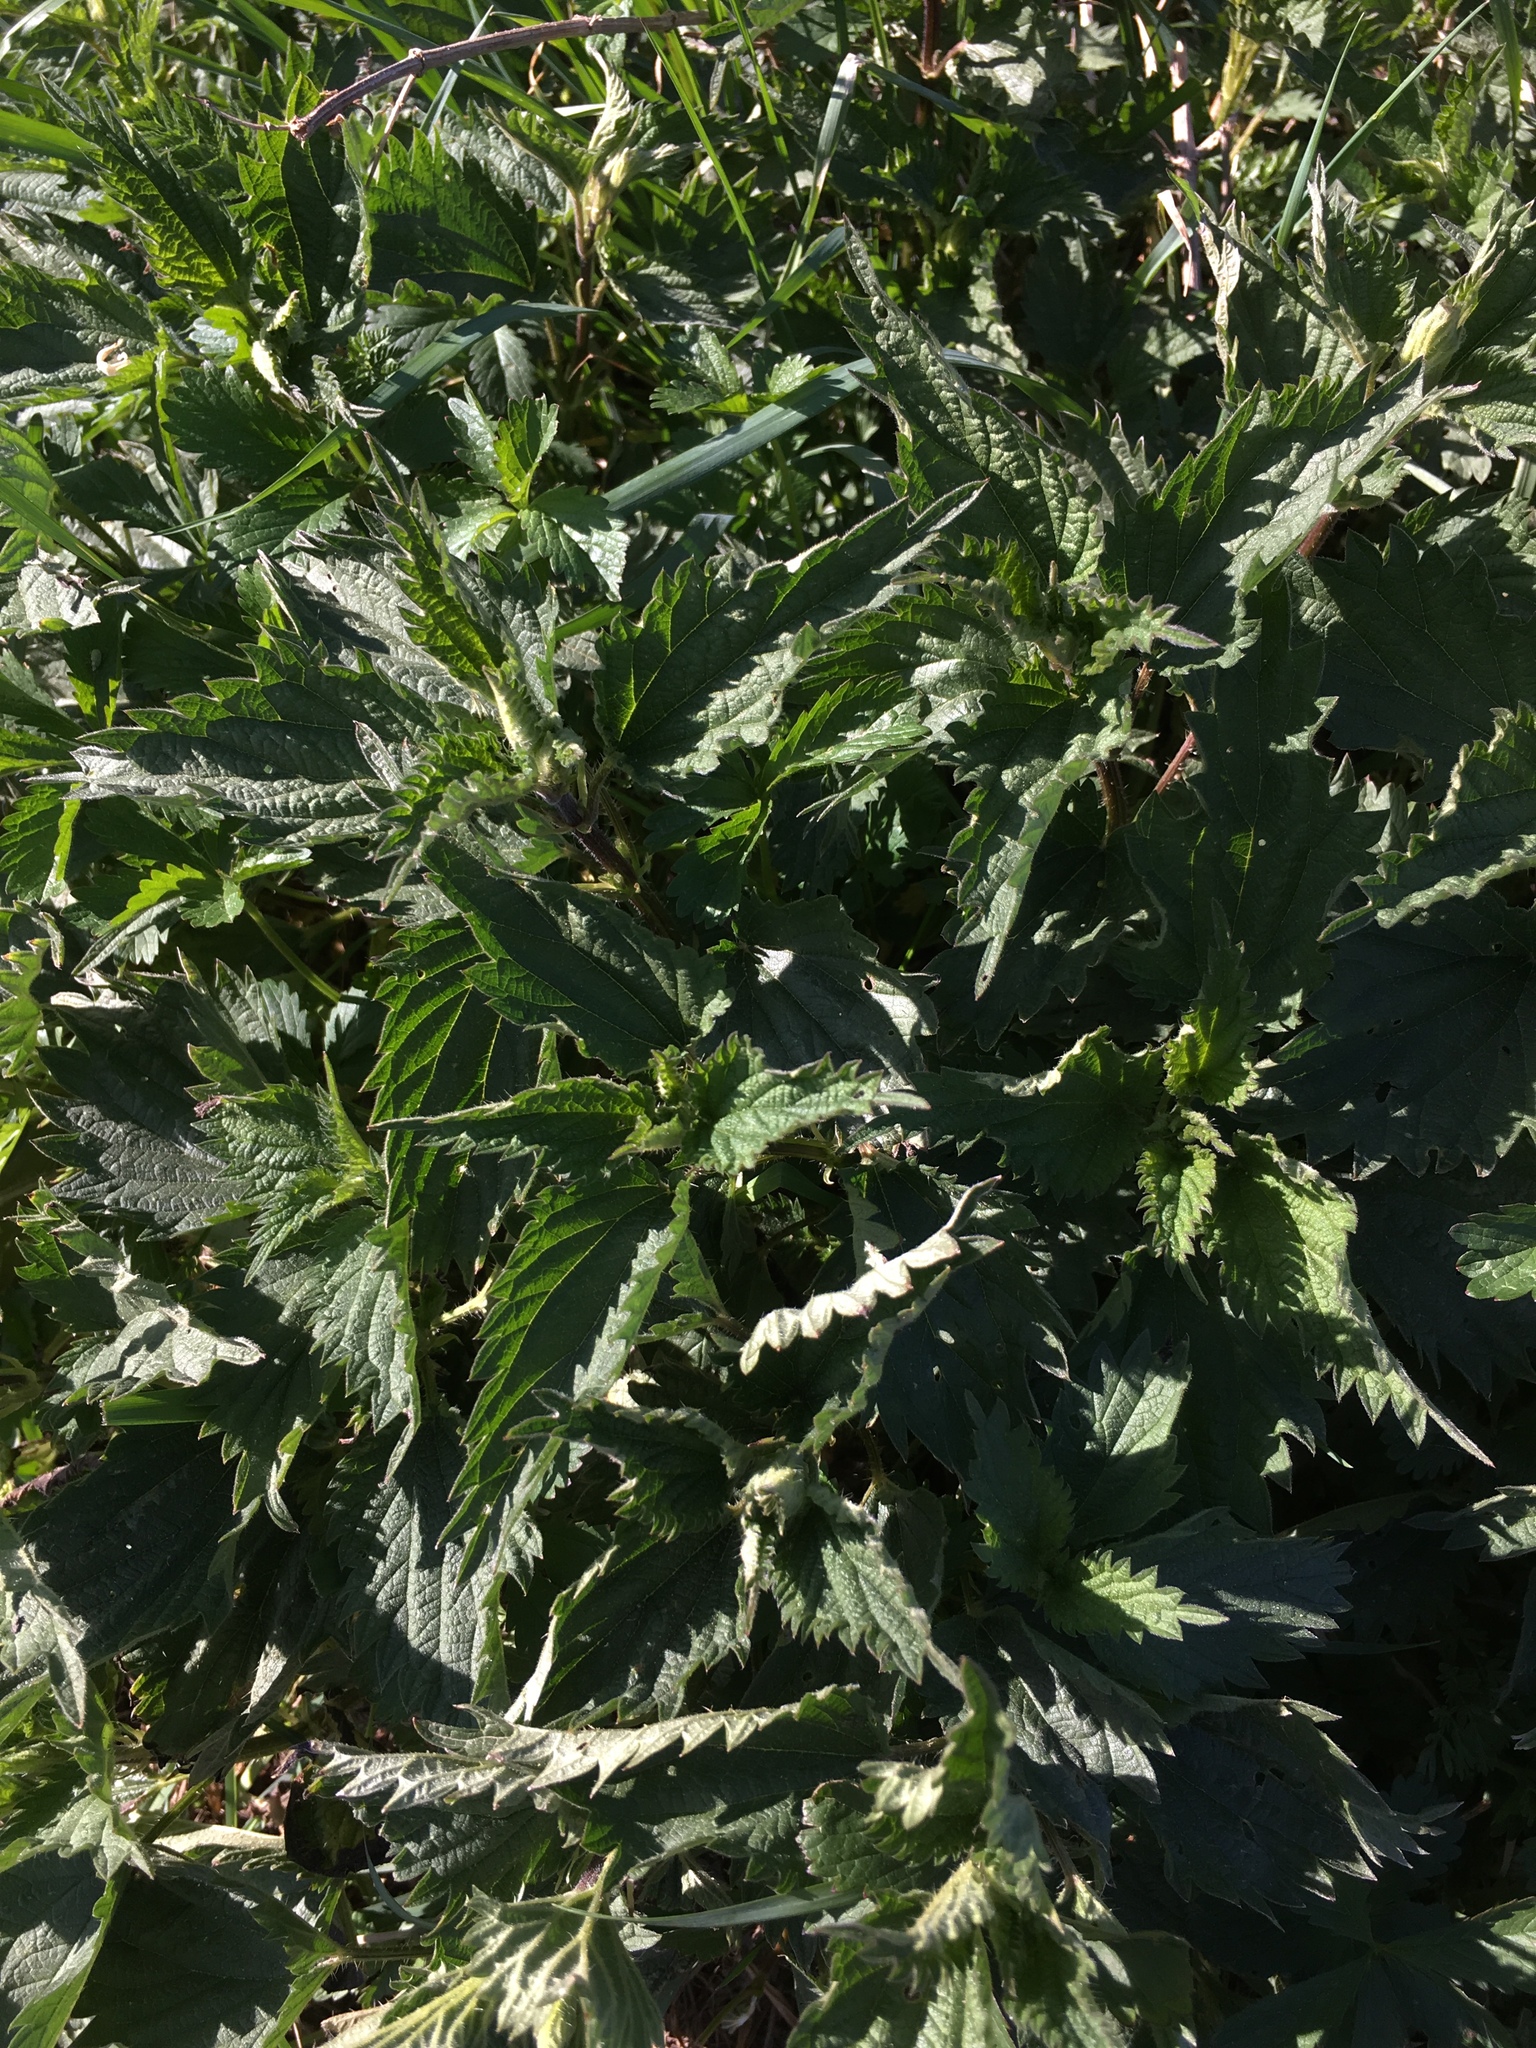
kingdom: Plantae
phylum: Tracheophyta
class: Magnoliopsida
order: Rosales
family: Urticaceae
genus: Urtica
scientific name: Urtica dioica
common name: Common nettle
